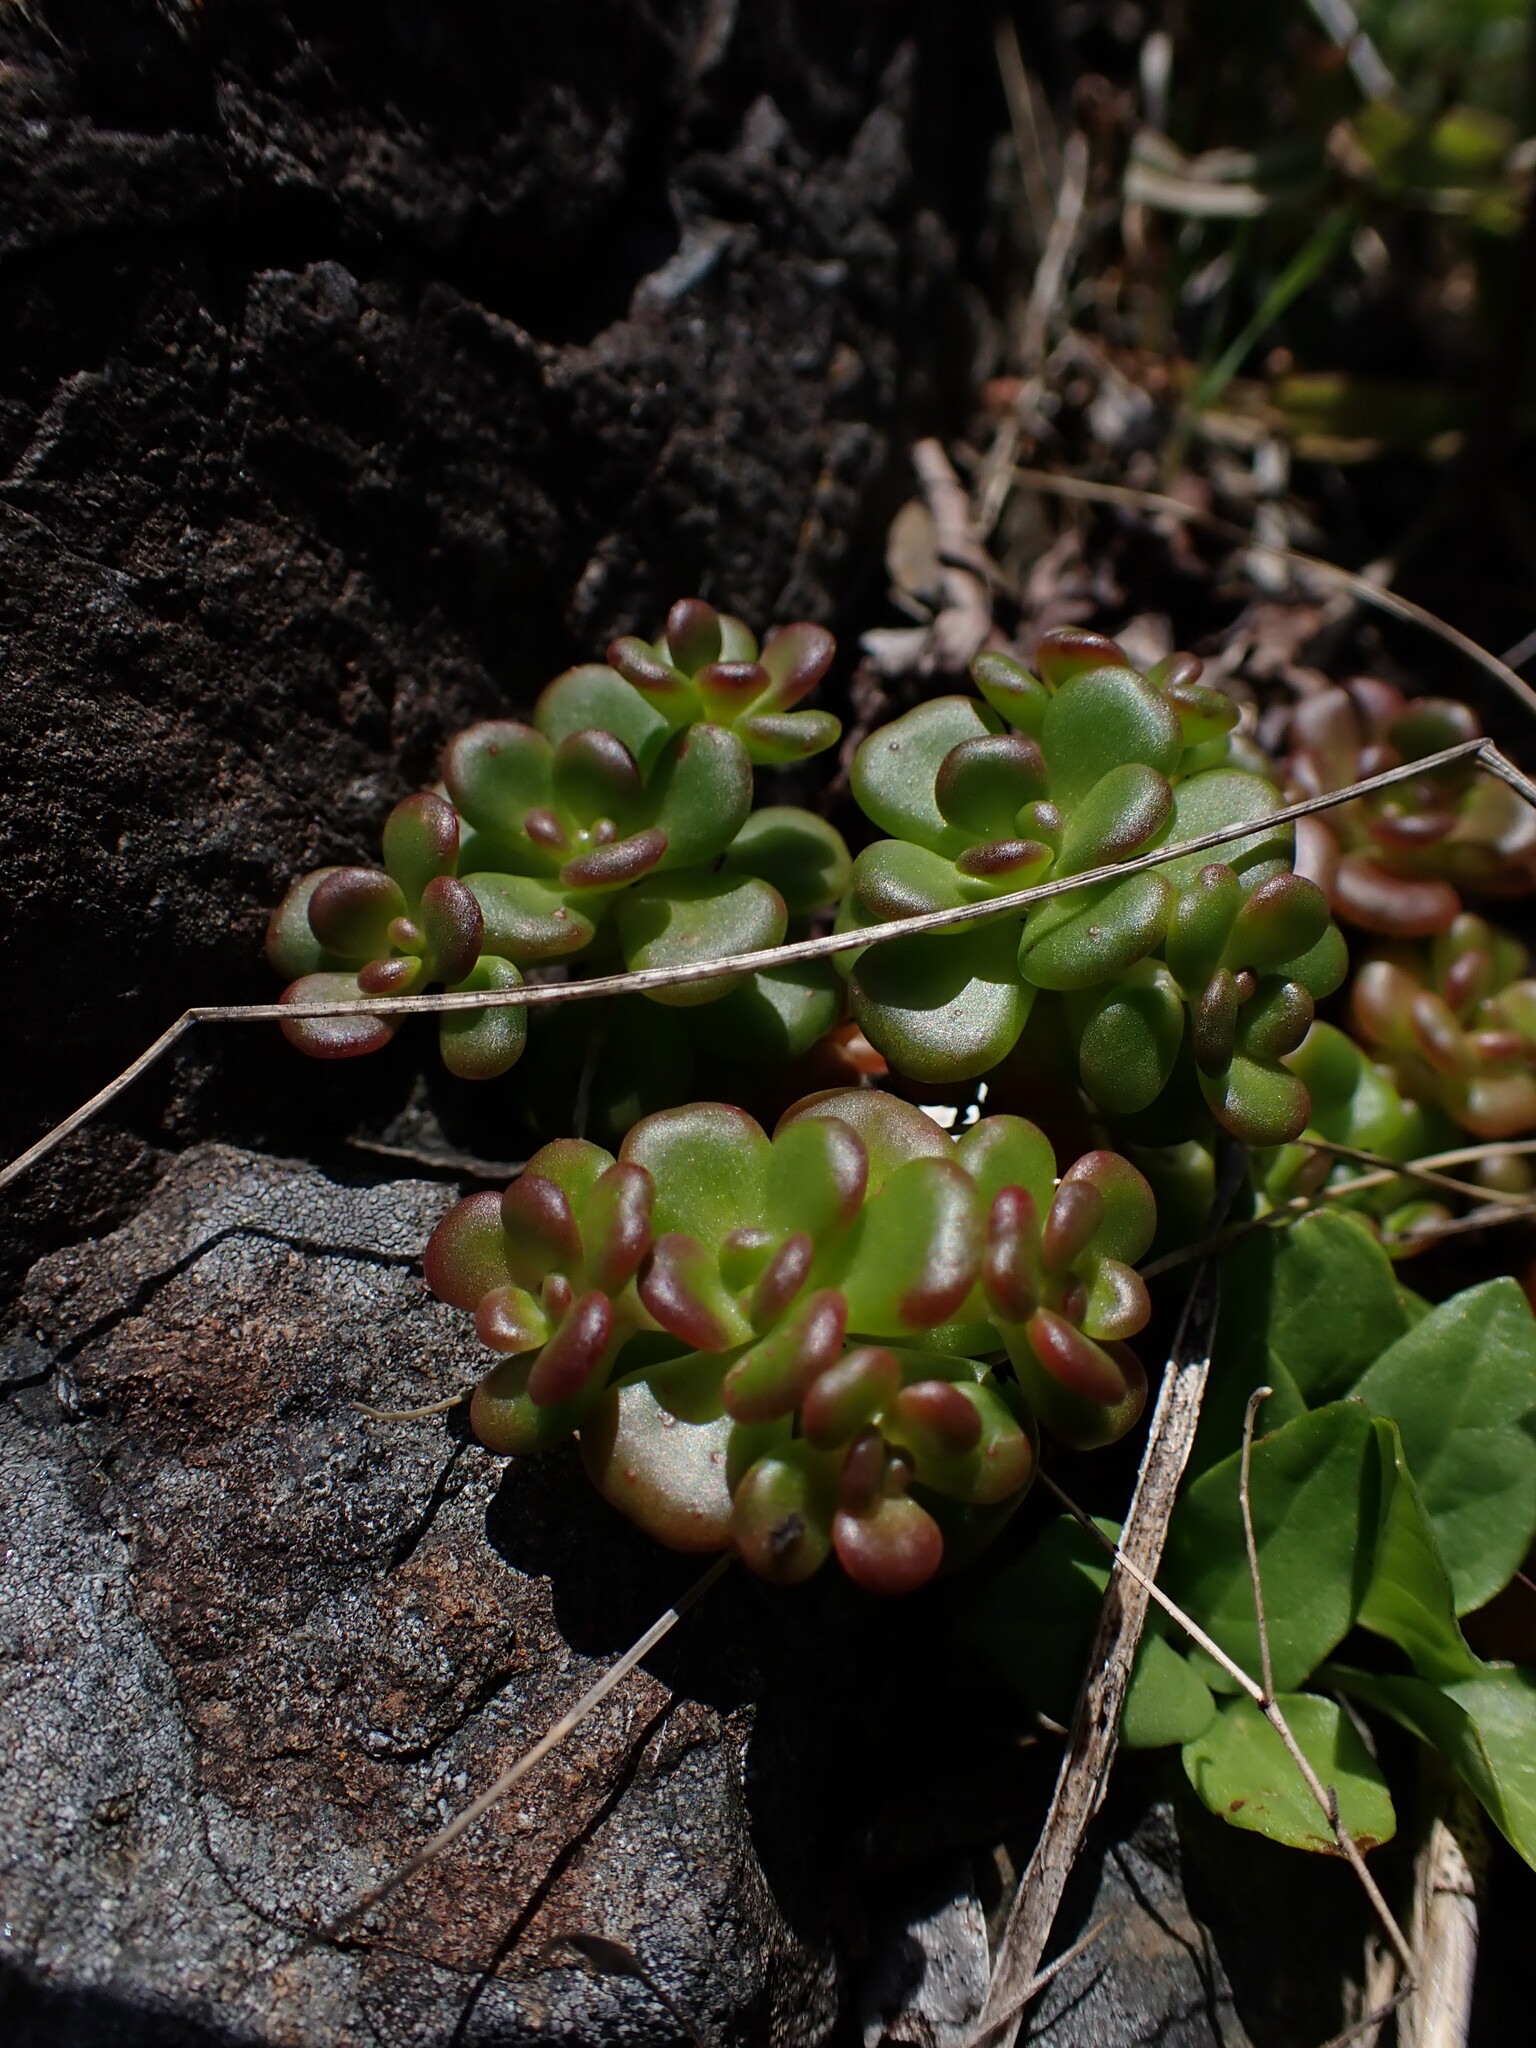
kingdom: Plantae
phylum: Tracheophyta
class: Magnoliopsida
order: Saxifragales
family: Crassulaceae
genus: Sedum
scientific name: Sedum oreganum
